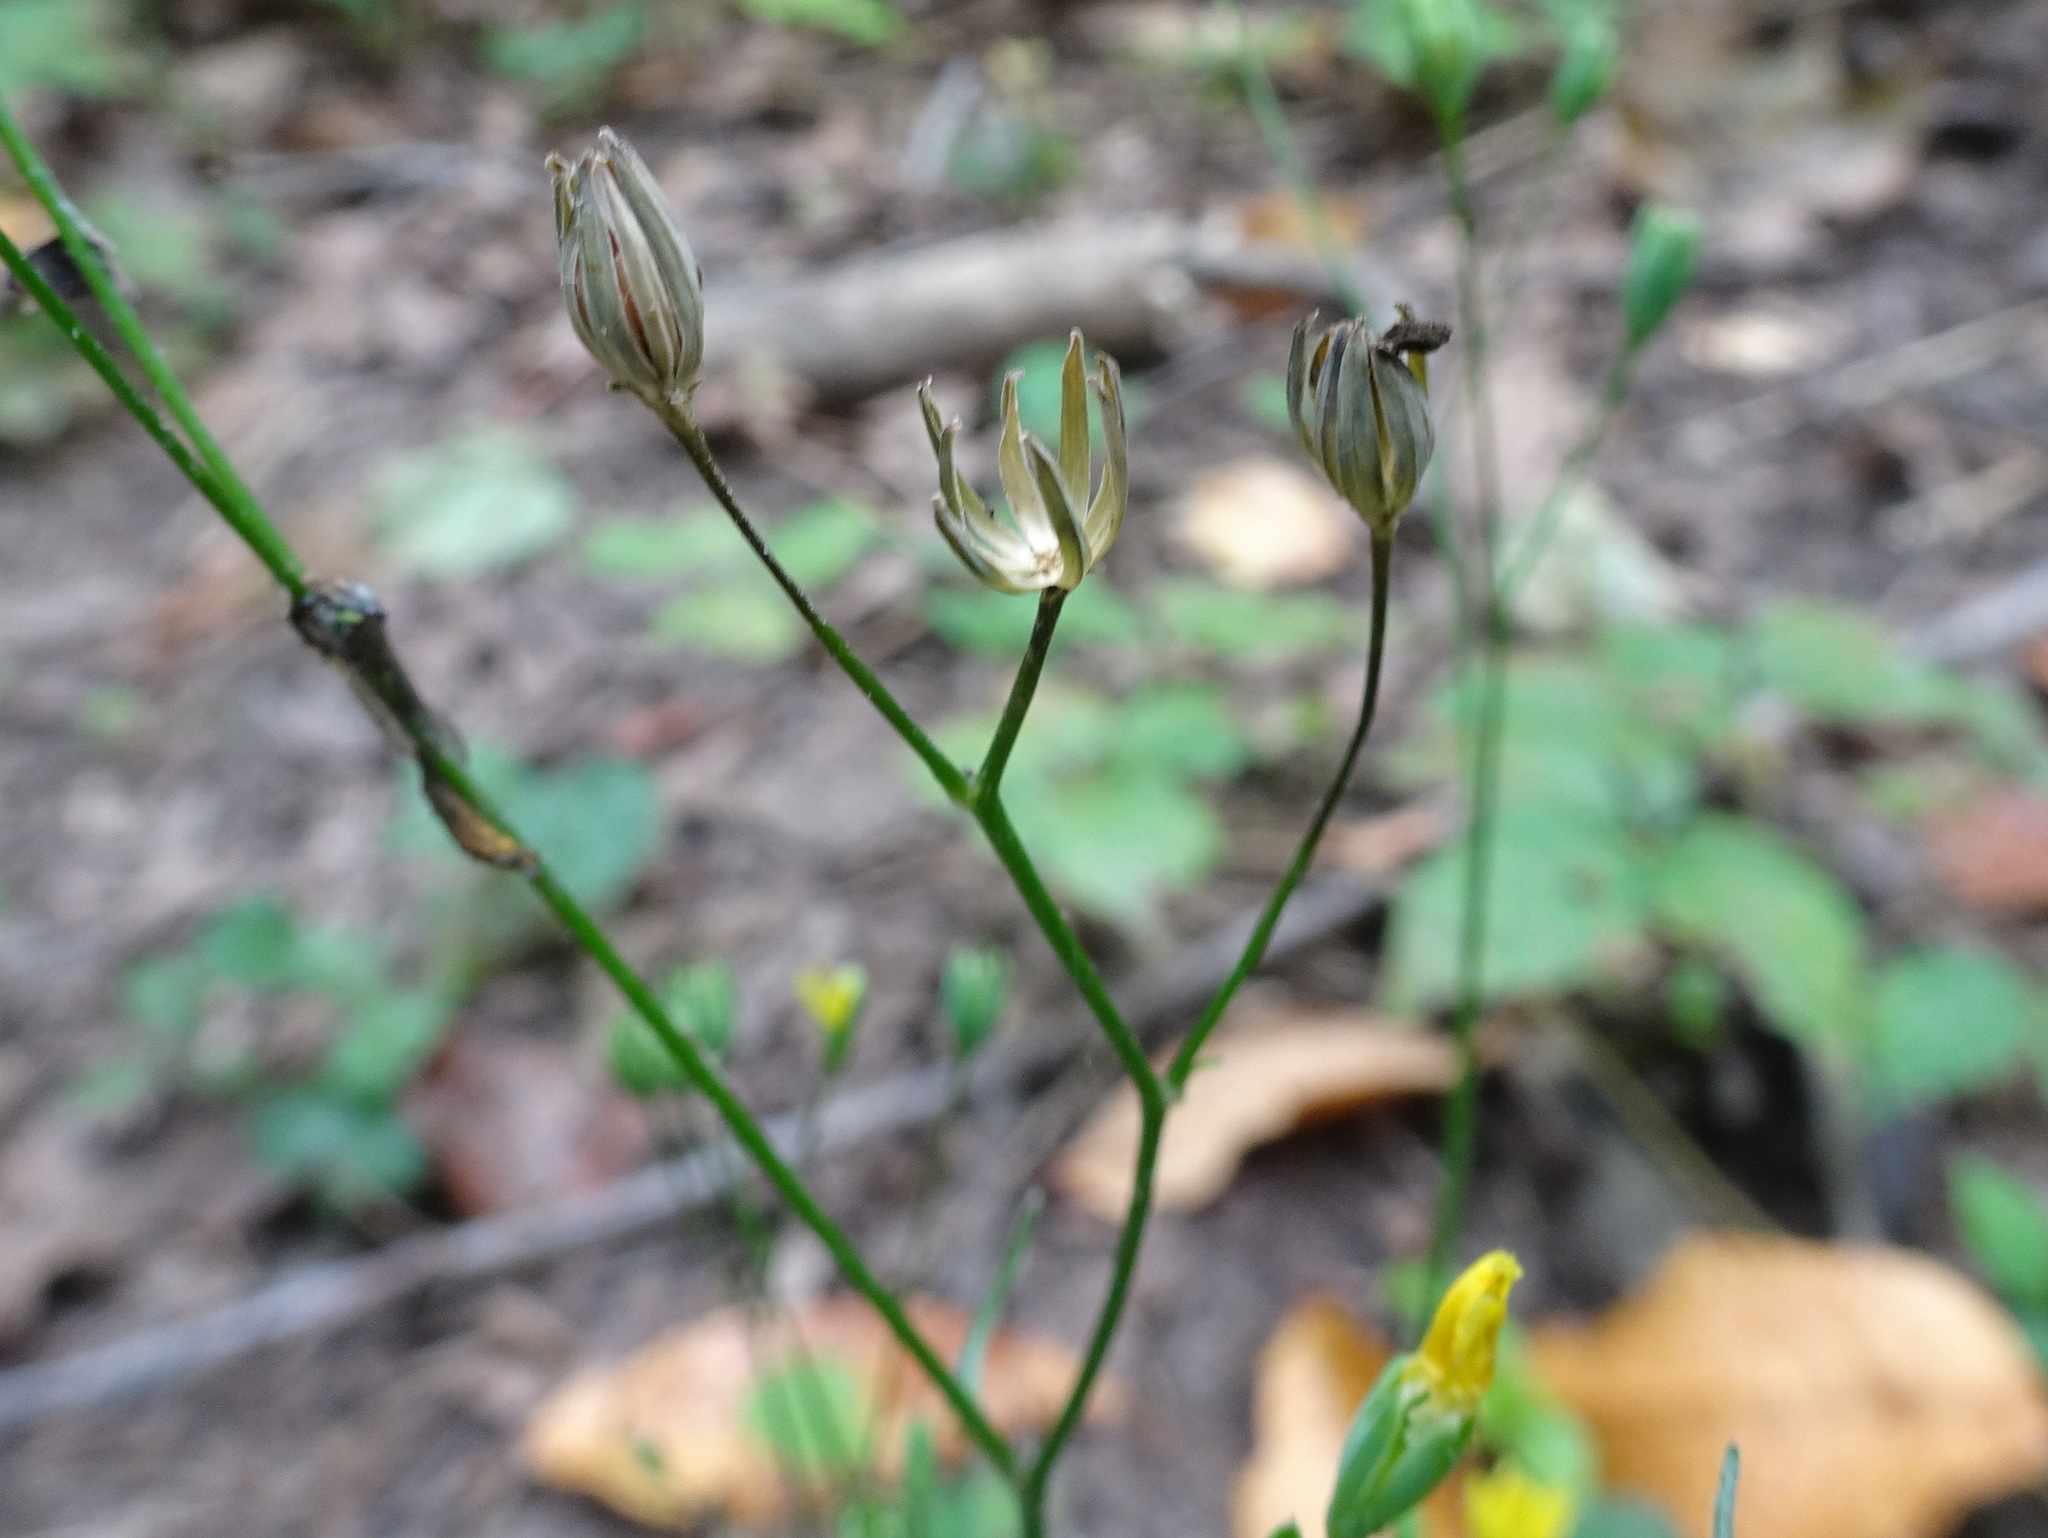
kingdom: Plantae
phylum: Tracheophyta
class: Magnoliopsida
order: Asterales
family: Asteraceae
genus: Lapsana
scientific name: Lapsana communis
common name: Nipplewort
